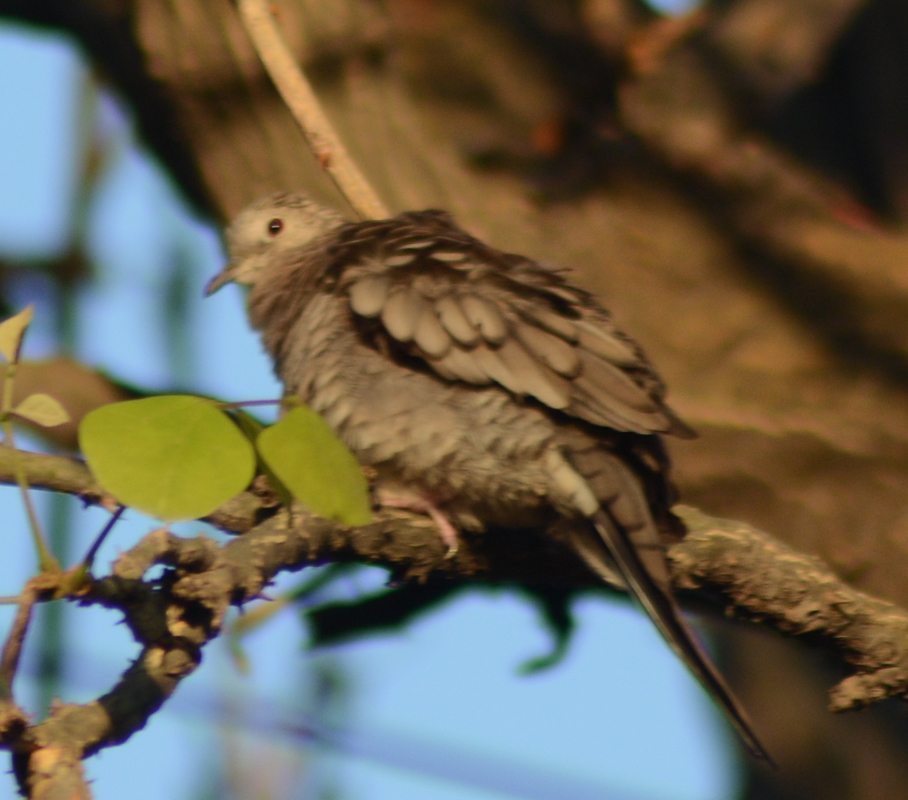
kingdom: Animalia
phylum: Chordata
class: Aves
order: Columbiformes
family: Columbidae
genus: Columbina
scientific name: Columbina inca
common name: Inca dove
